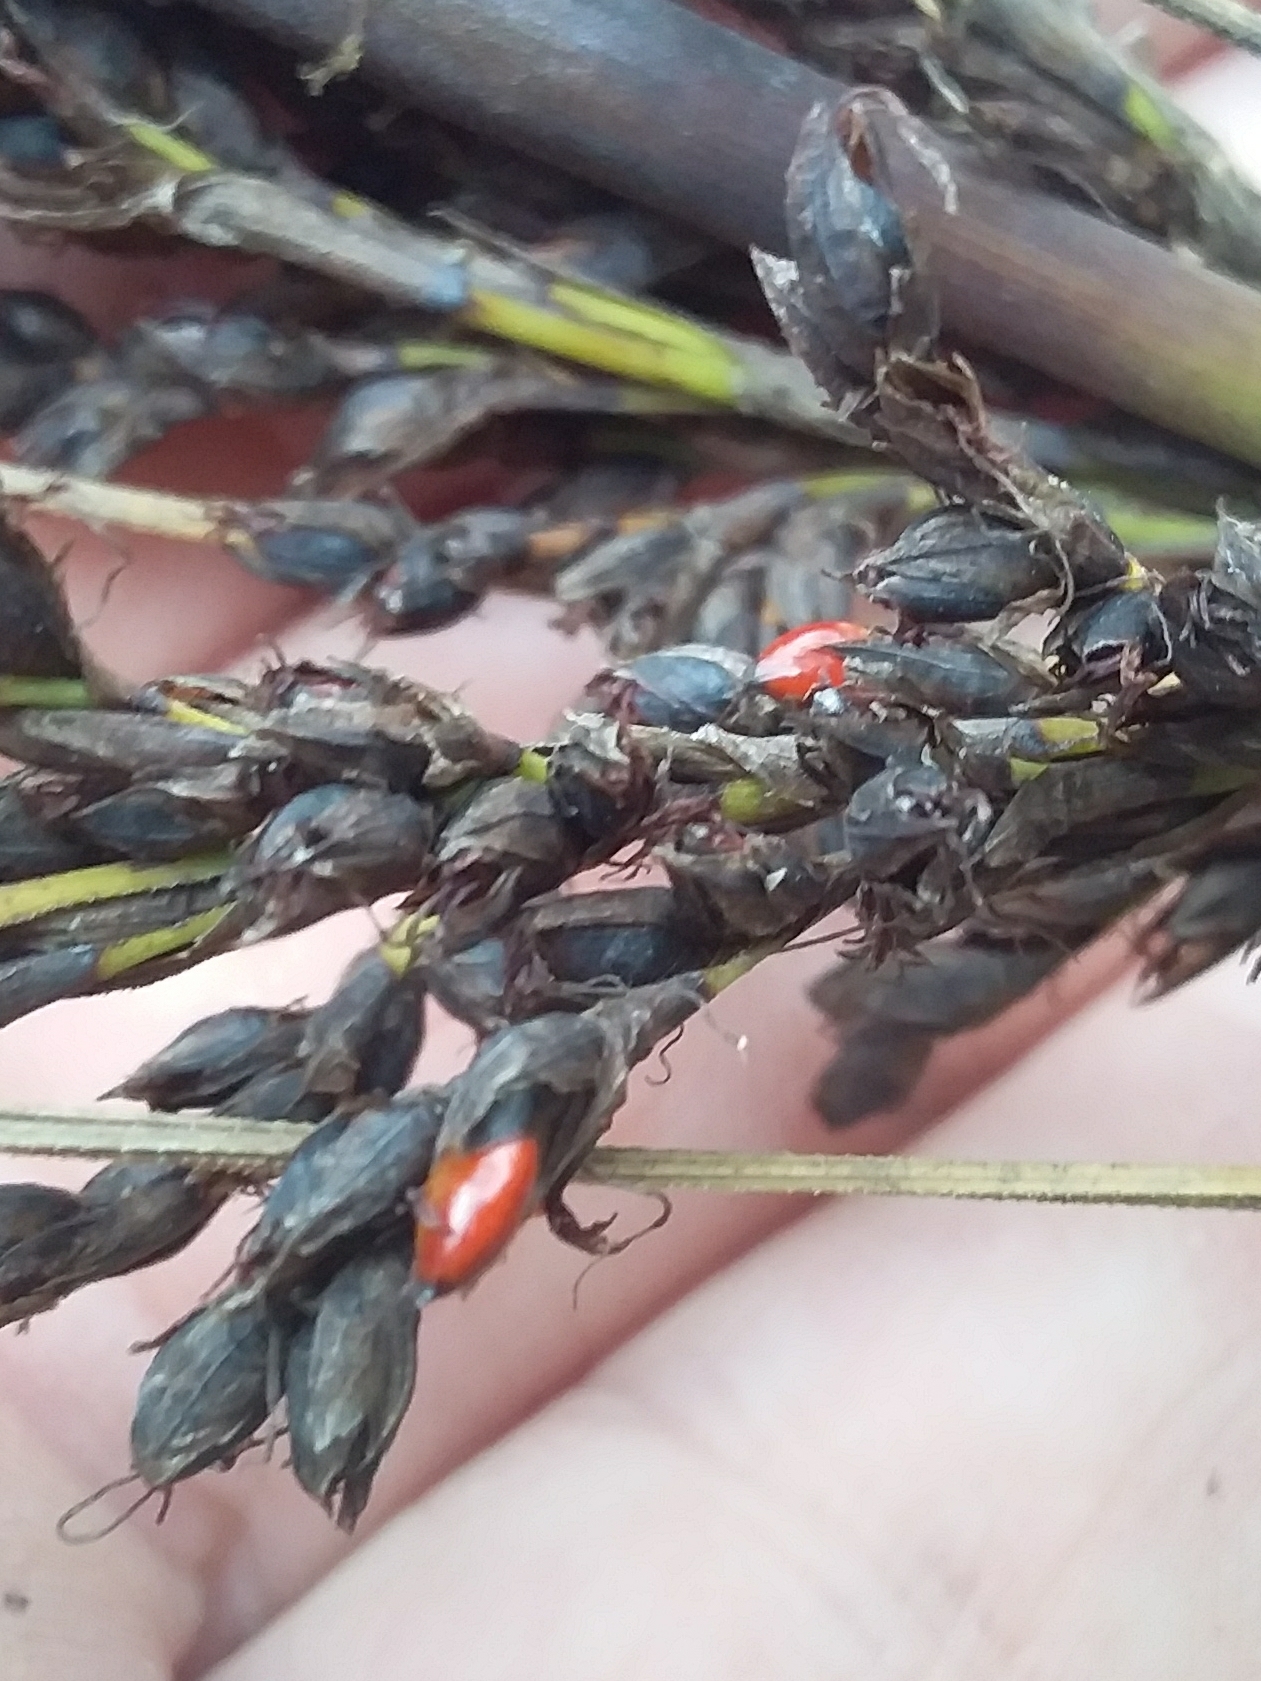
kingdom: Plantae
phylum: Tracheophyta
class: Liliopsida
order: Poales
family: Cyperaceae
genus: Gahnia
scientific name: Gahnia sieberiana
